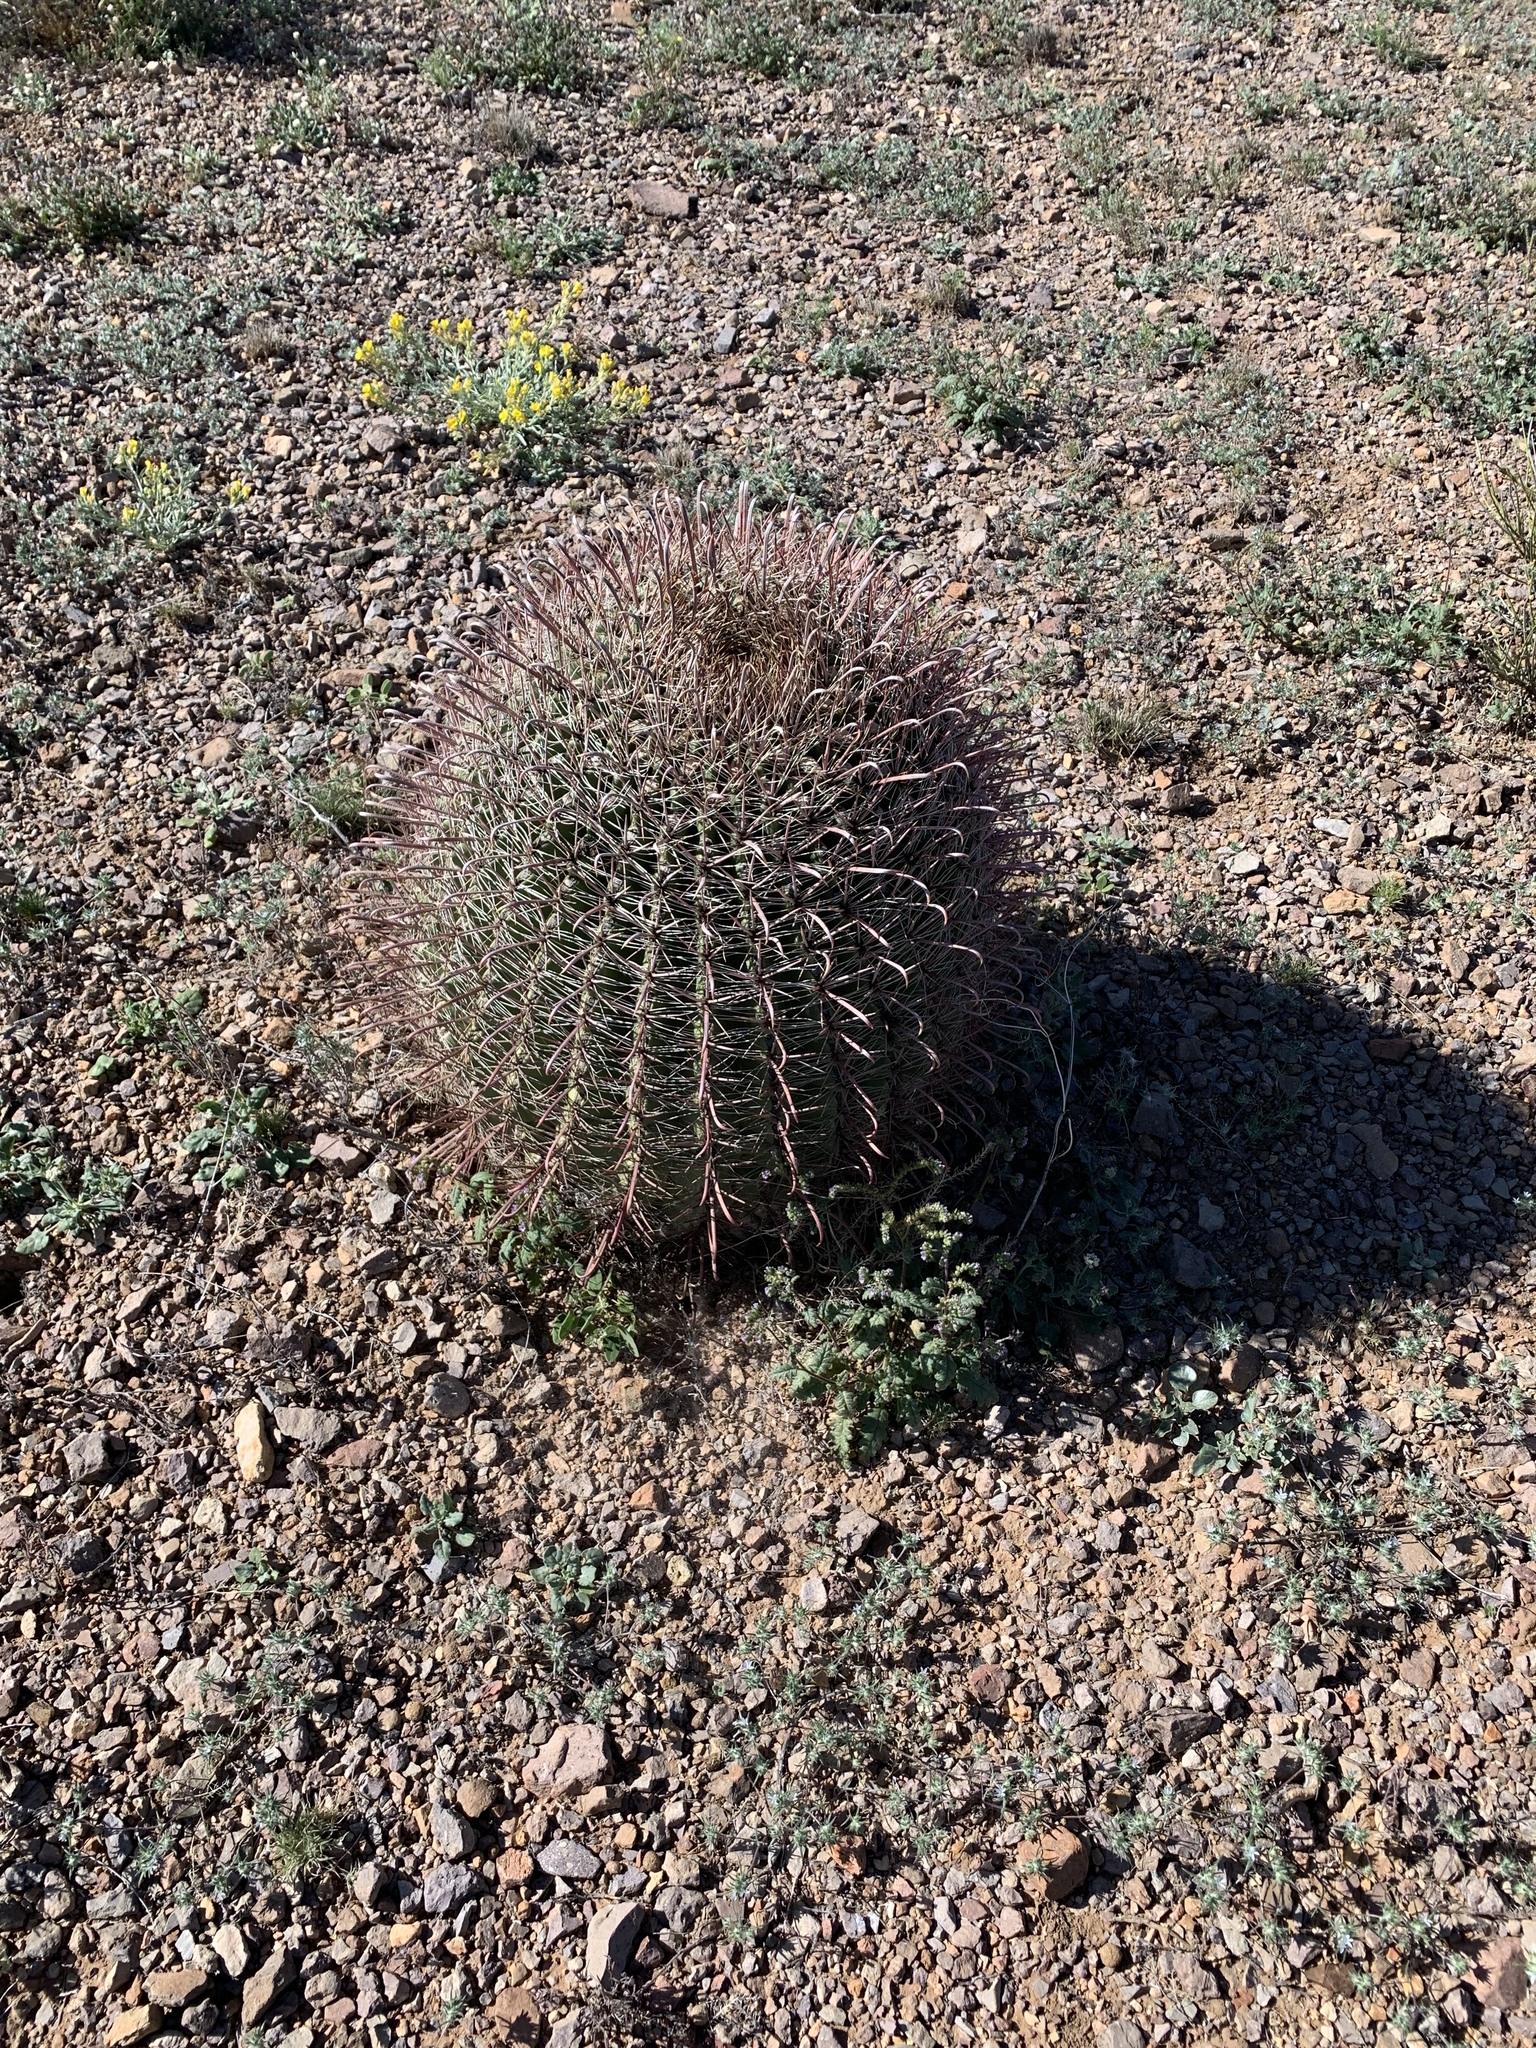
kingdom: Plantae
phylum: Tracheophyta
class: Magnoliopsida
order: Caryophyllales
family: Cactaceae
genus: Ferocactus
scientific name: Ferocactus wislizeni
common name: Candy barrel cactus
